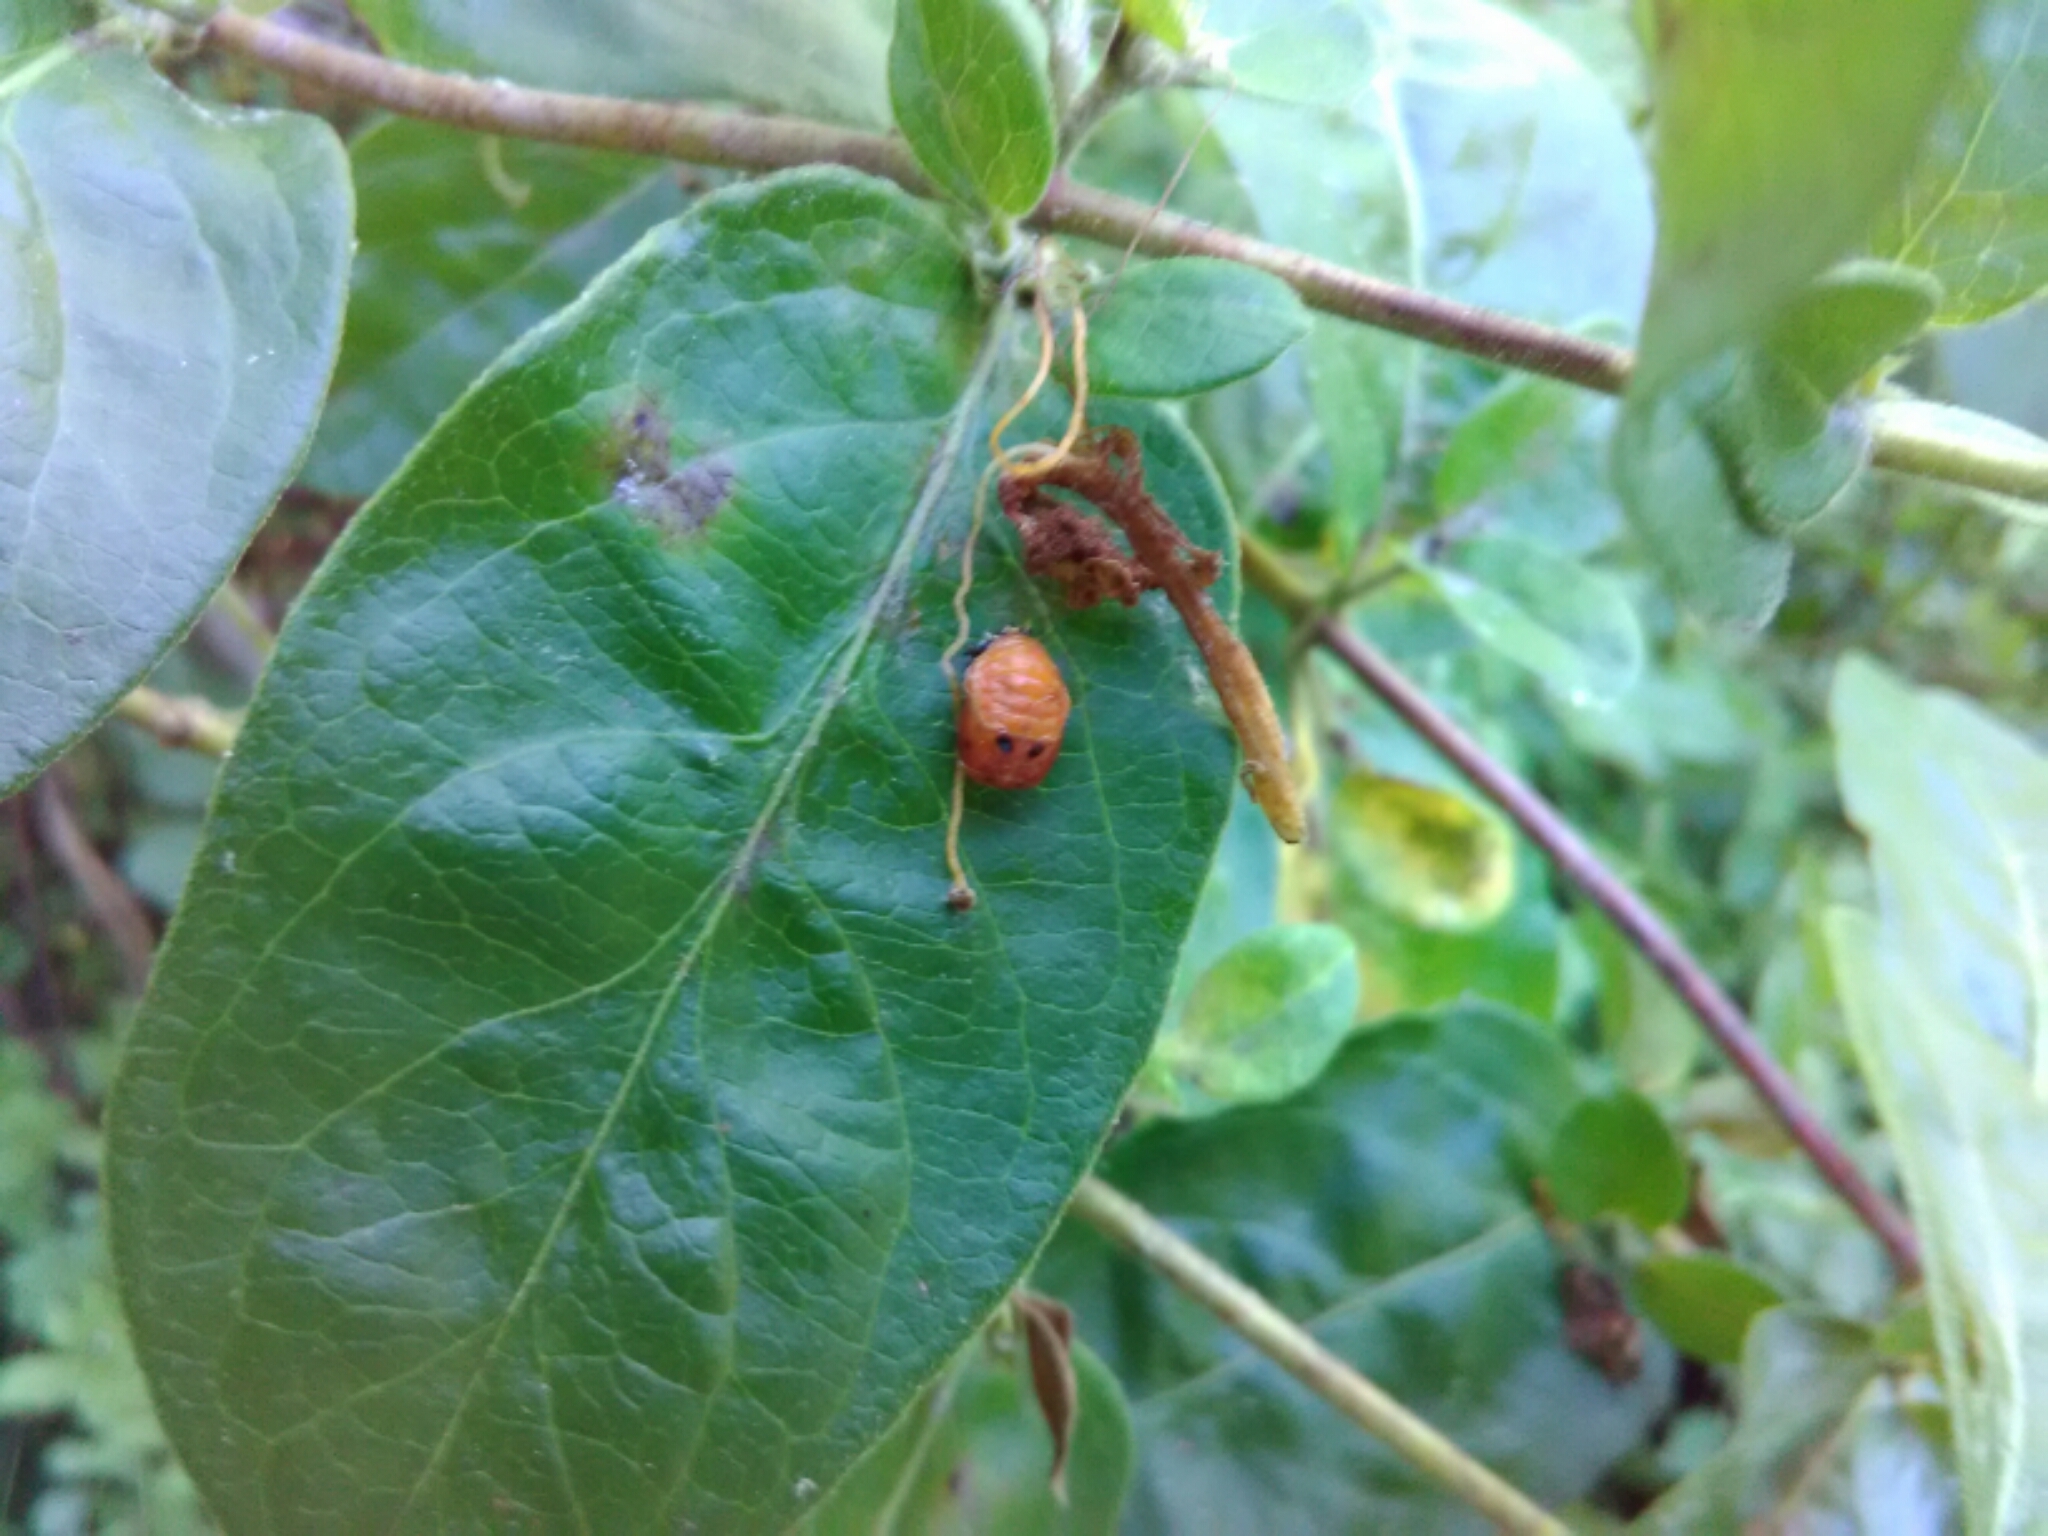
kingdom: Animalia
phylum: Arthropoda
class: Insecta
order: Coleoptera
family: Coccinellidae
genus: Harmonia
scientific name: Harmonia axyridis
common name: Harlequin ladybird
